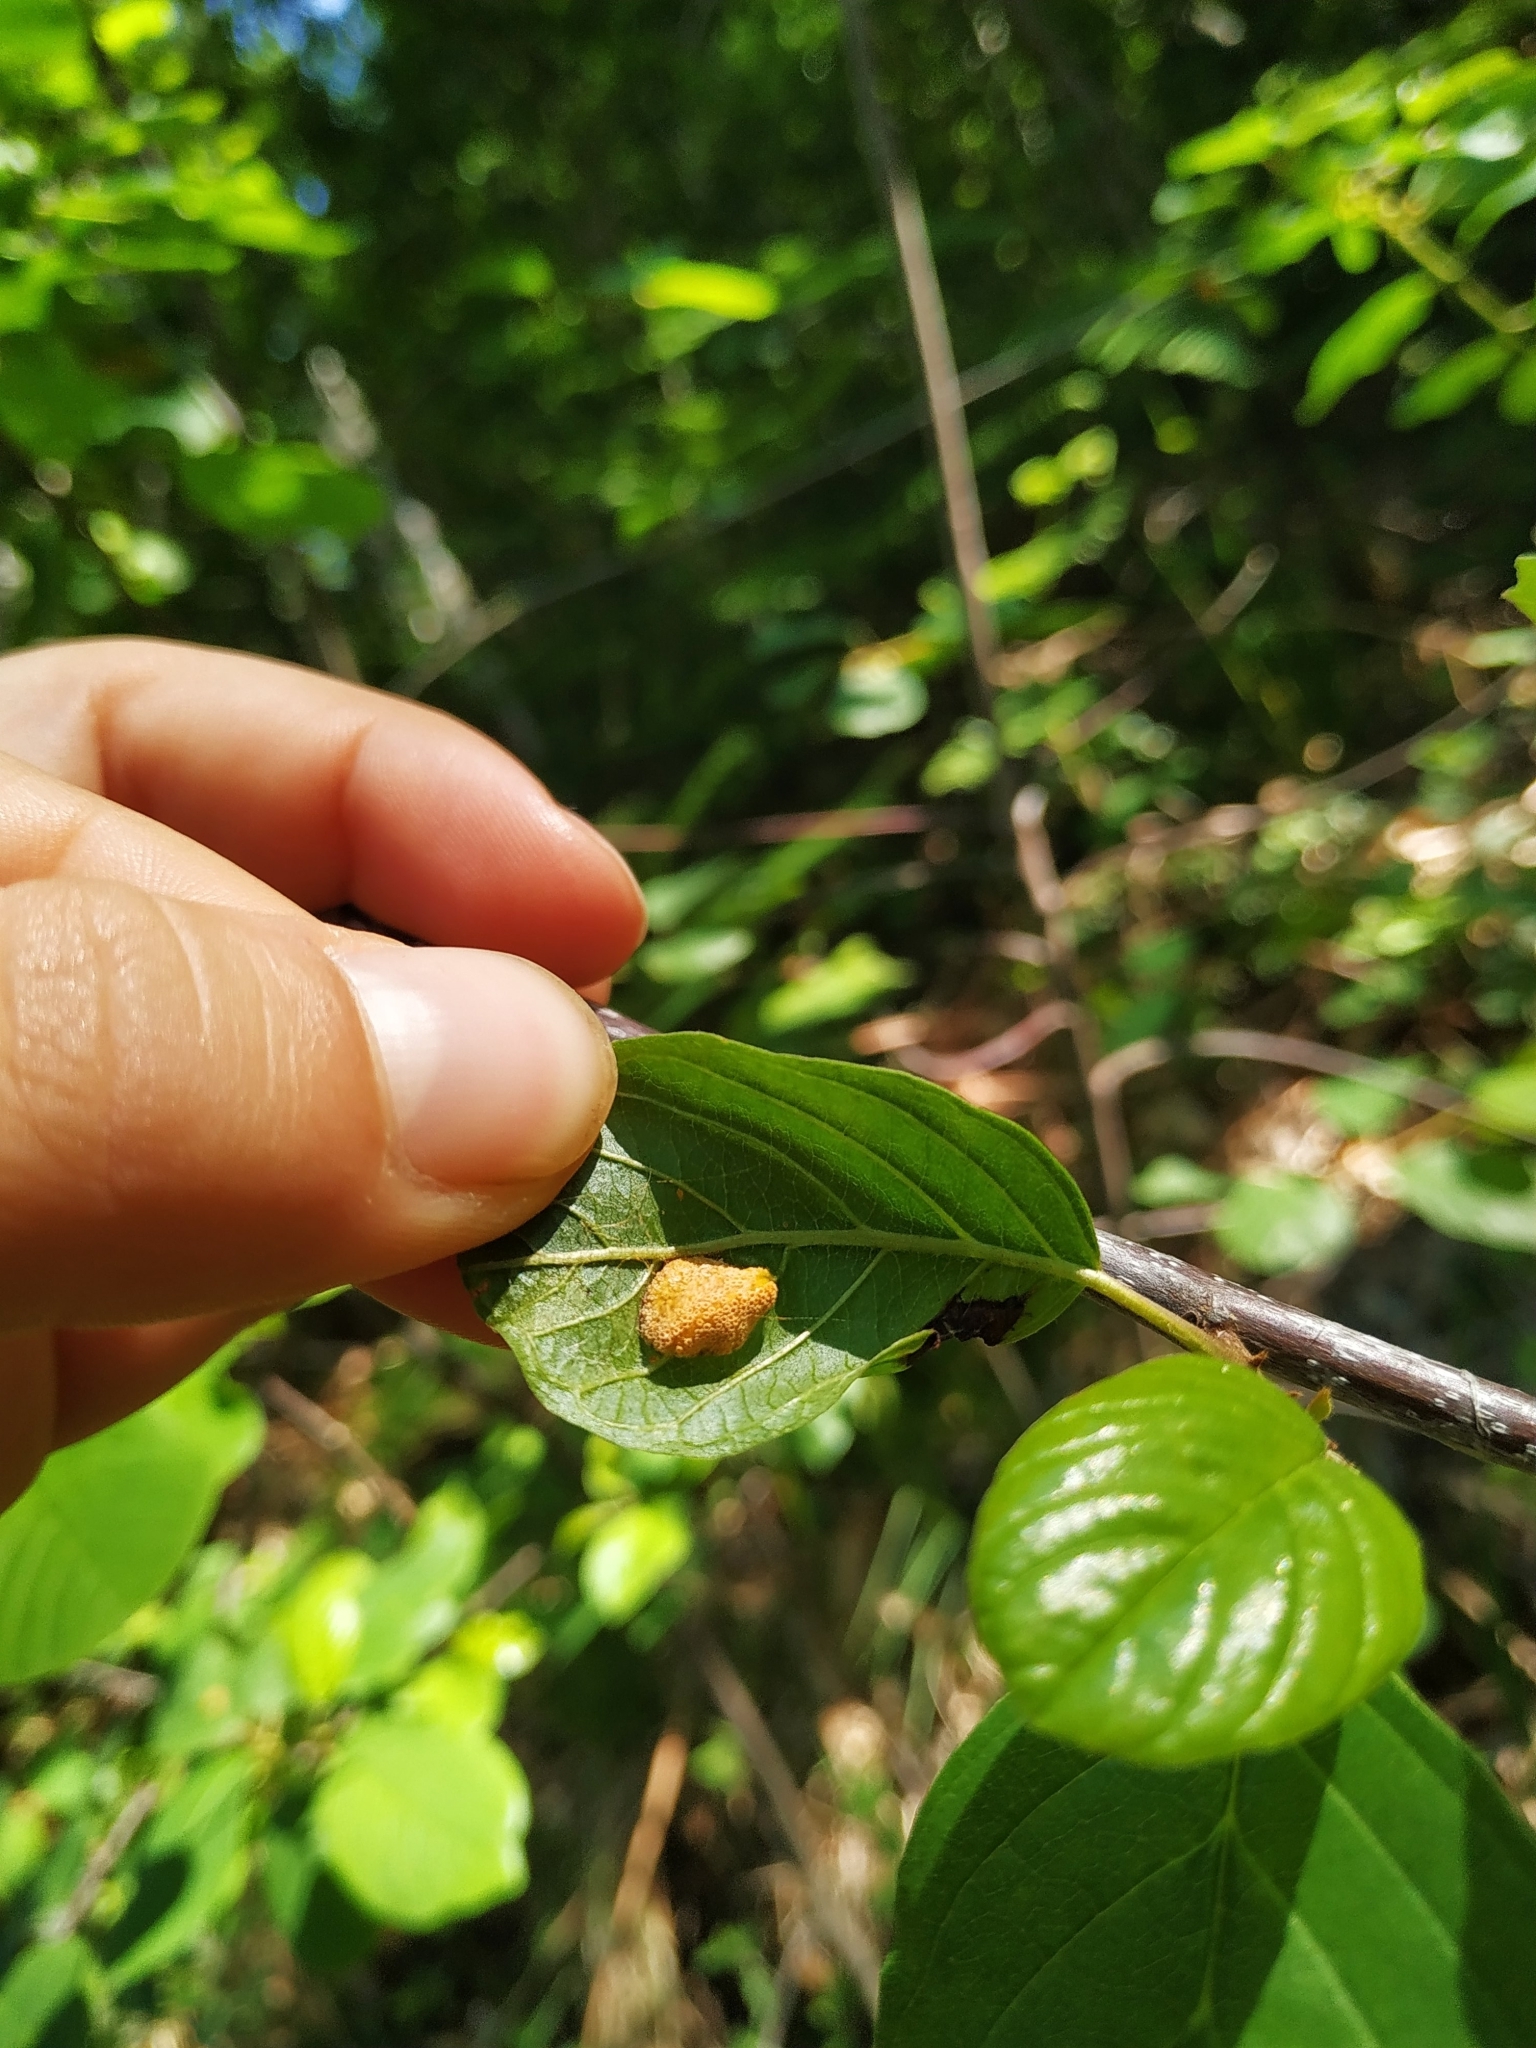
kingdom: Fungi
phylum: Basidiomycota
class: Pucciniomycetes
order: Pucciniales
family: Pucciniaceae
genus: Puccinia
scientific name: Puccinia coronata
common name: Crown rust
